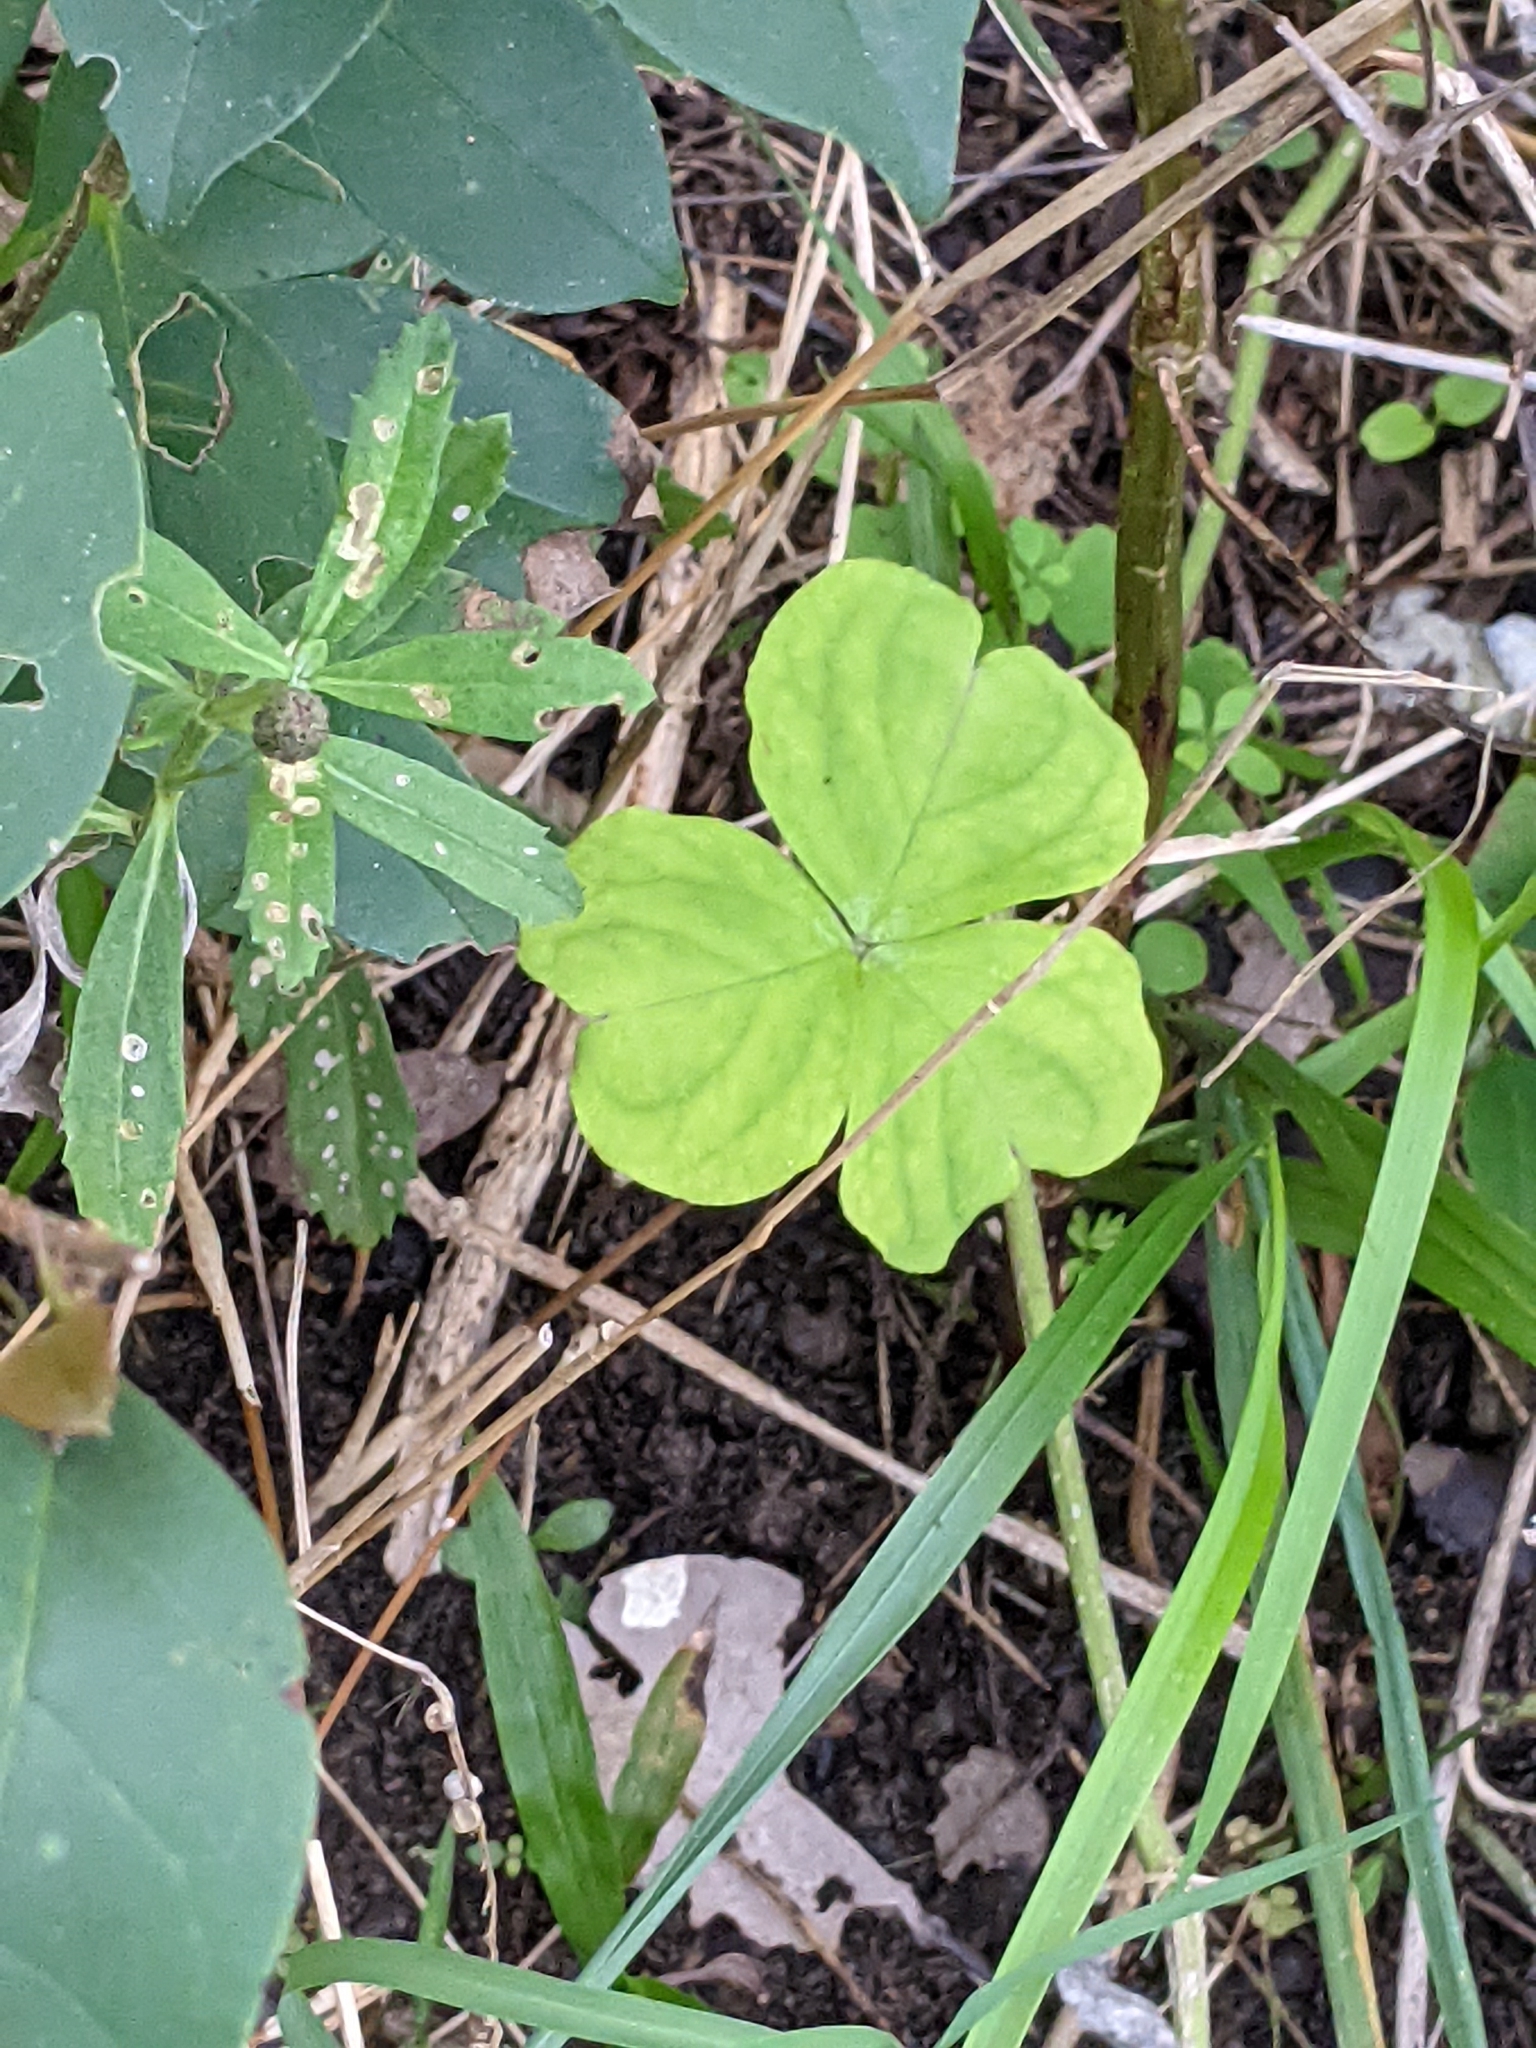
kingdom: Plantae
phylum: Tracheophyta
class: Magnoliopsida
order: Oxalidales
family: Oxalidaceae
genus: Oxalis
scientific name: Oxalis debilis
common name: Large-flowered pink-sorrel
